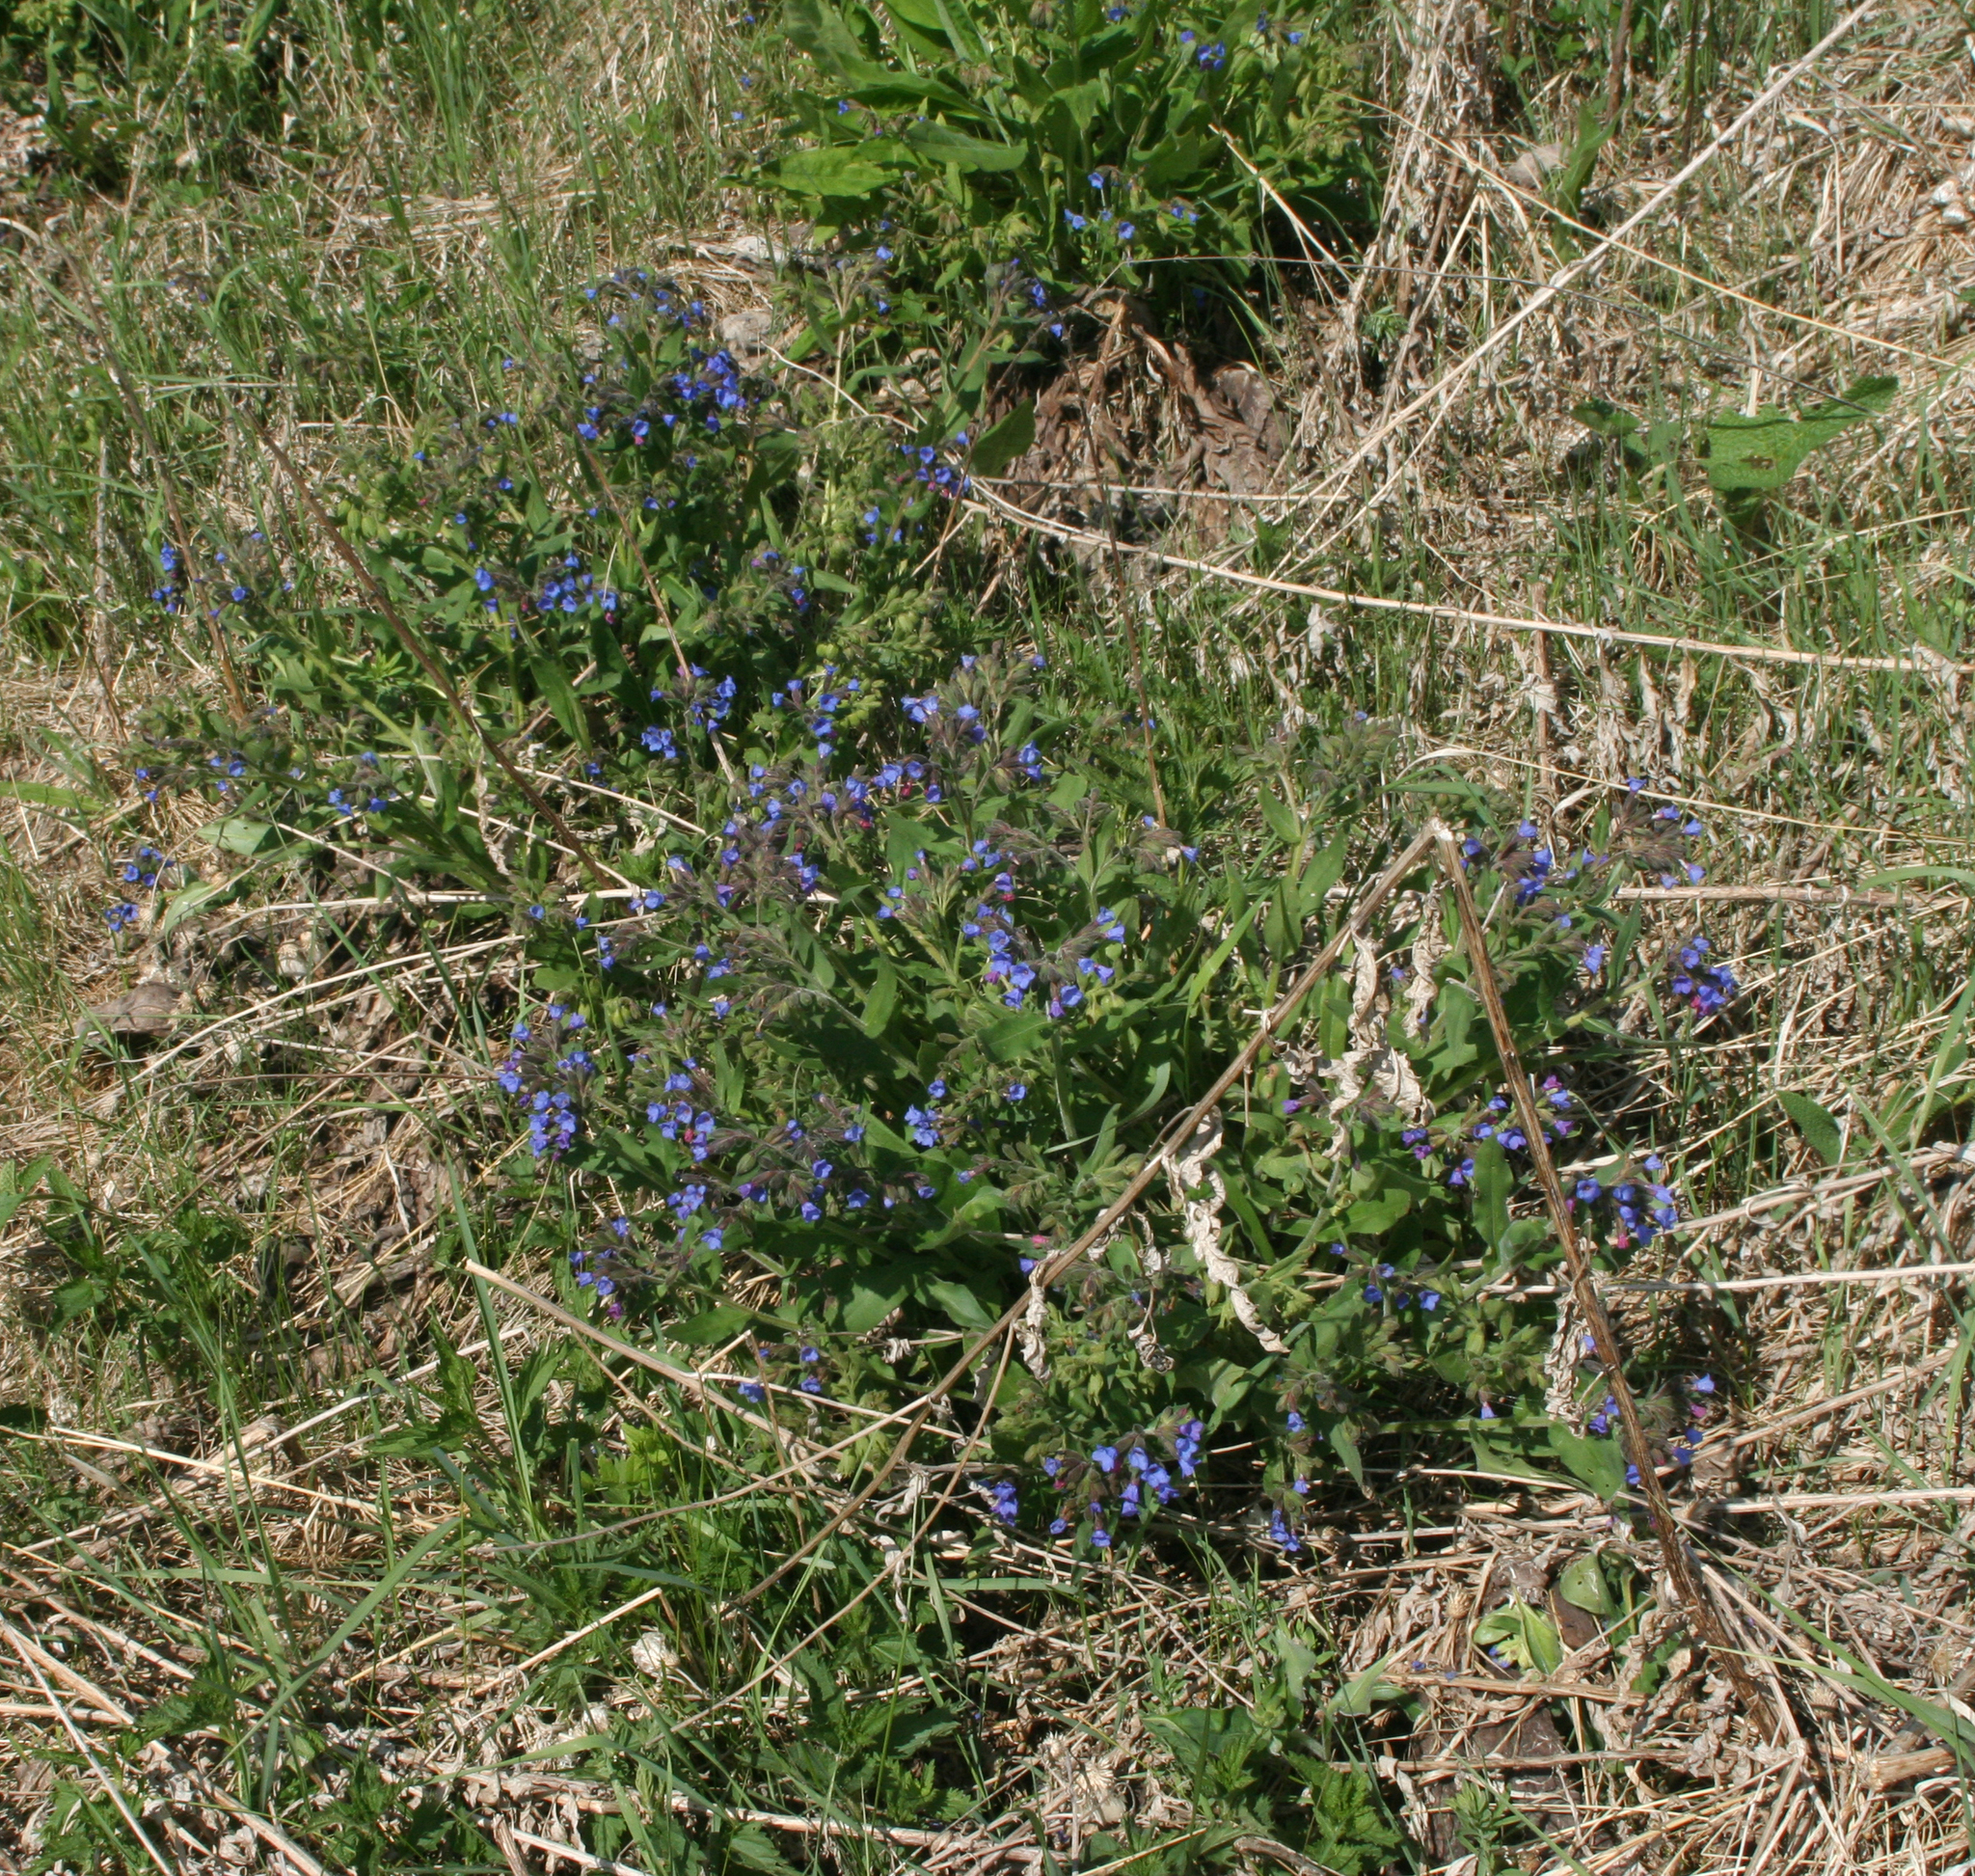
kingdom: Animalia
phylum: Arthropoda
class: Insecta
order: Lepidoptera
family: Pieridae
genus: Aporia
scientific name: Aporia crataegi
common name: Black-veined white
